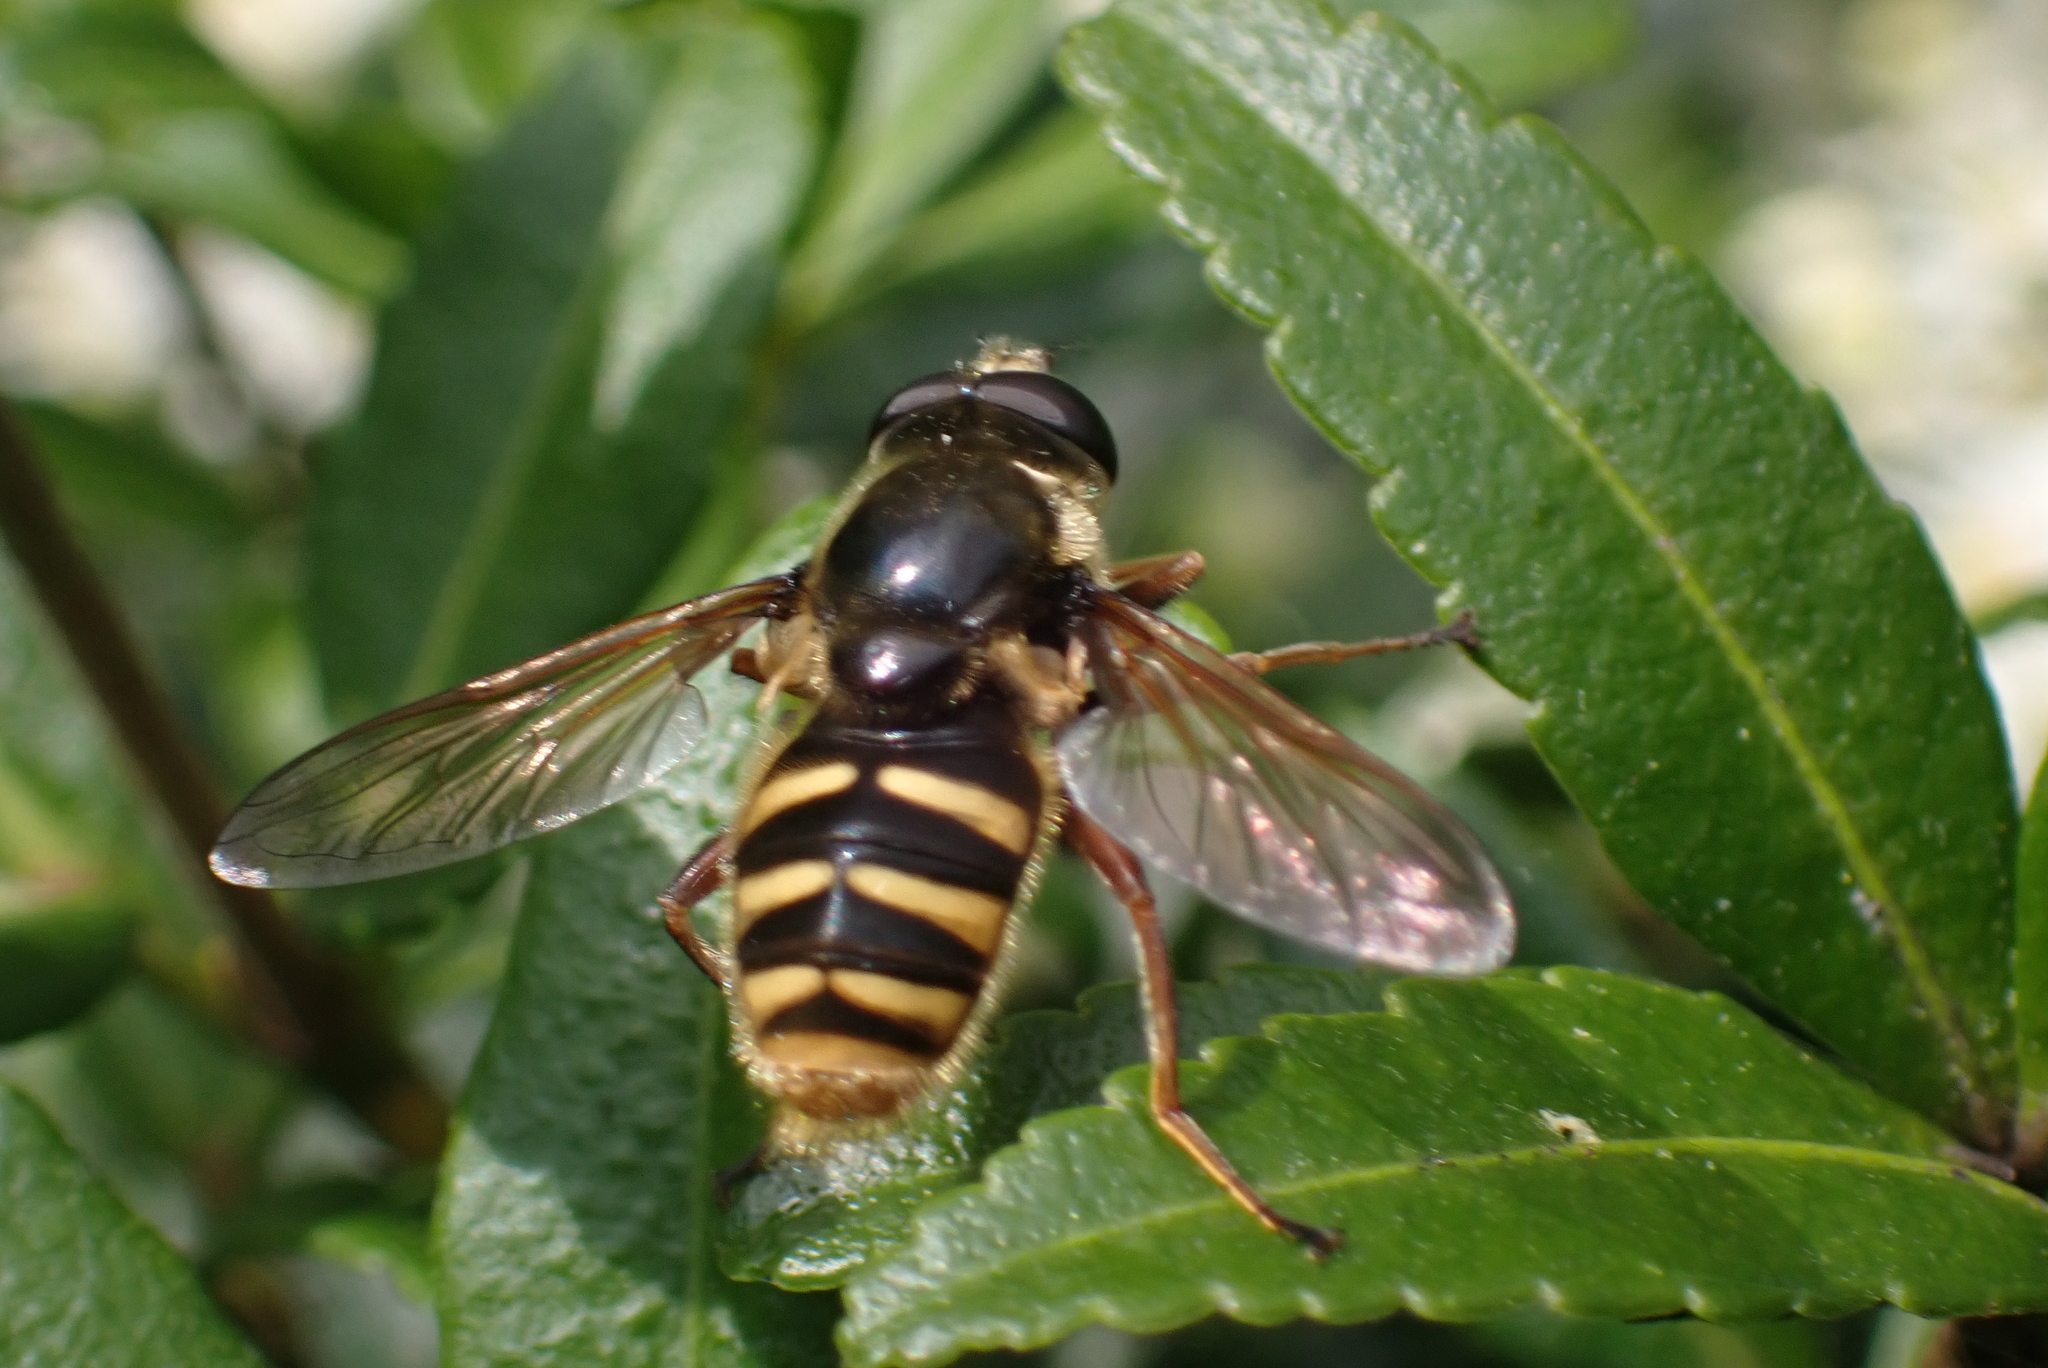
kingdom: Animalia
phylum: Arthropoda
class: Insecta
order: Diptera
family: Syrphidae
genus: Sericomyia
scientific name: Sericomyia silentis
